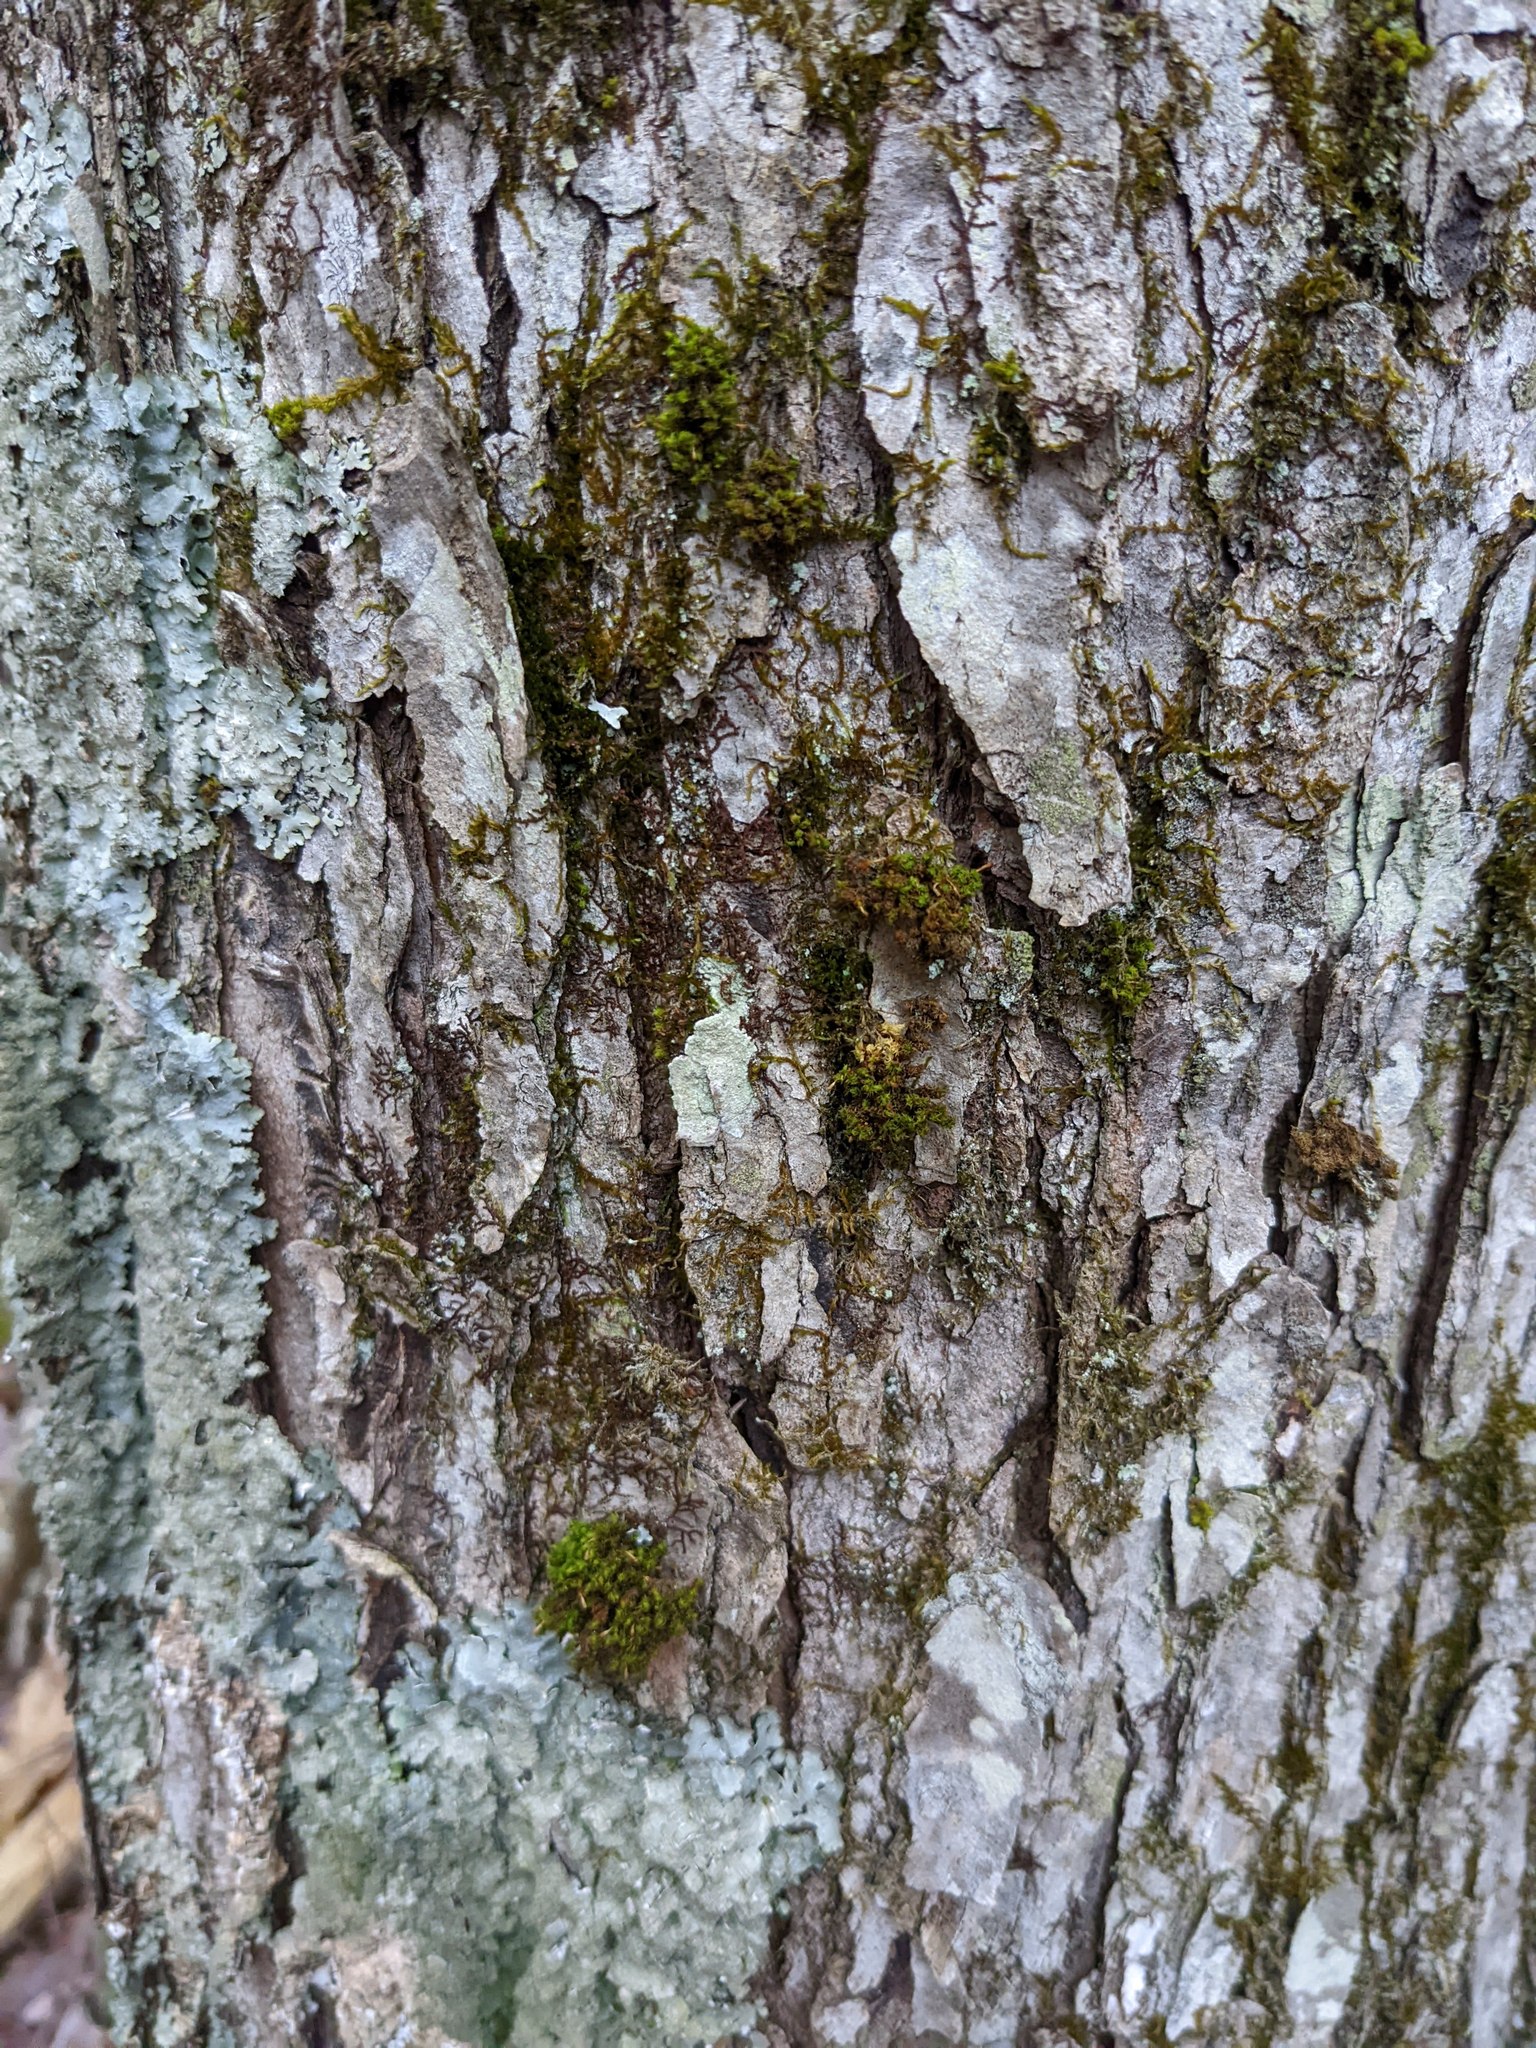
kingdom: Plantae
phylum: Bryophyta
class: Bryopsida
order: Orthotrichales
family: Orthotrichaceae
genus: Ulota
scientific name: Ulota crispa
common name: Crisped pincushion moss
